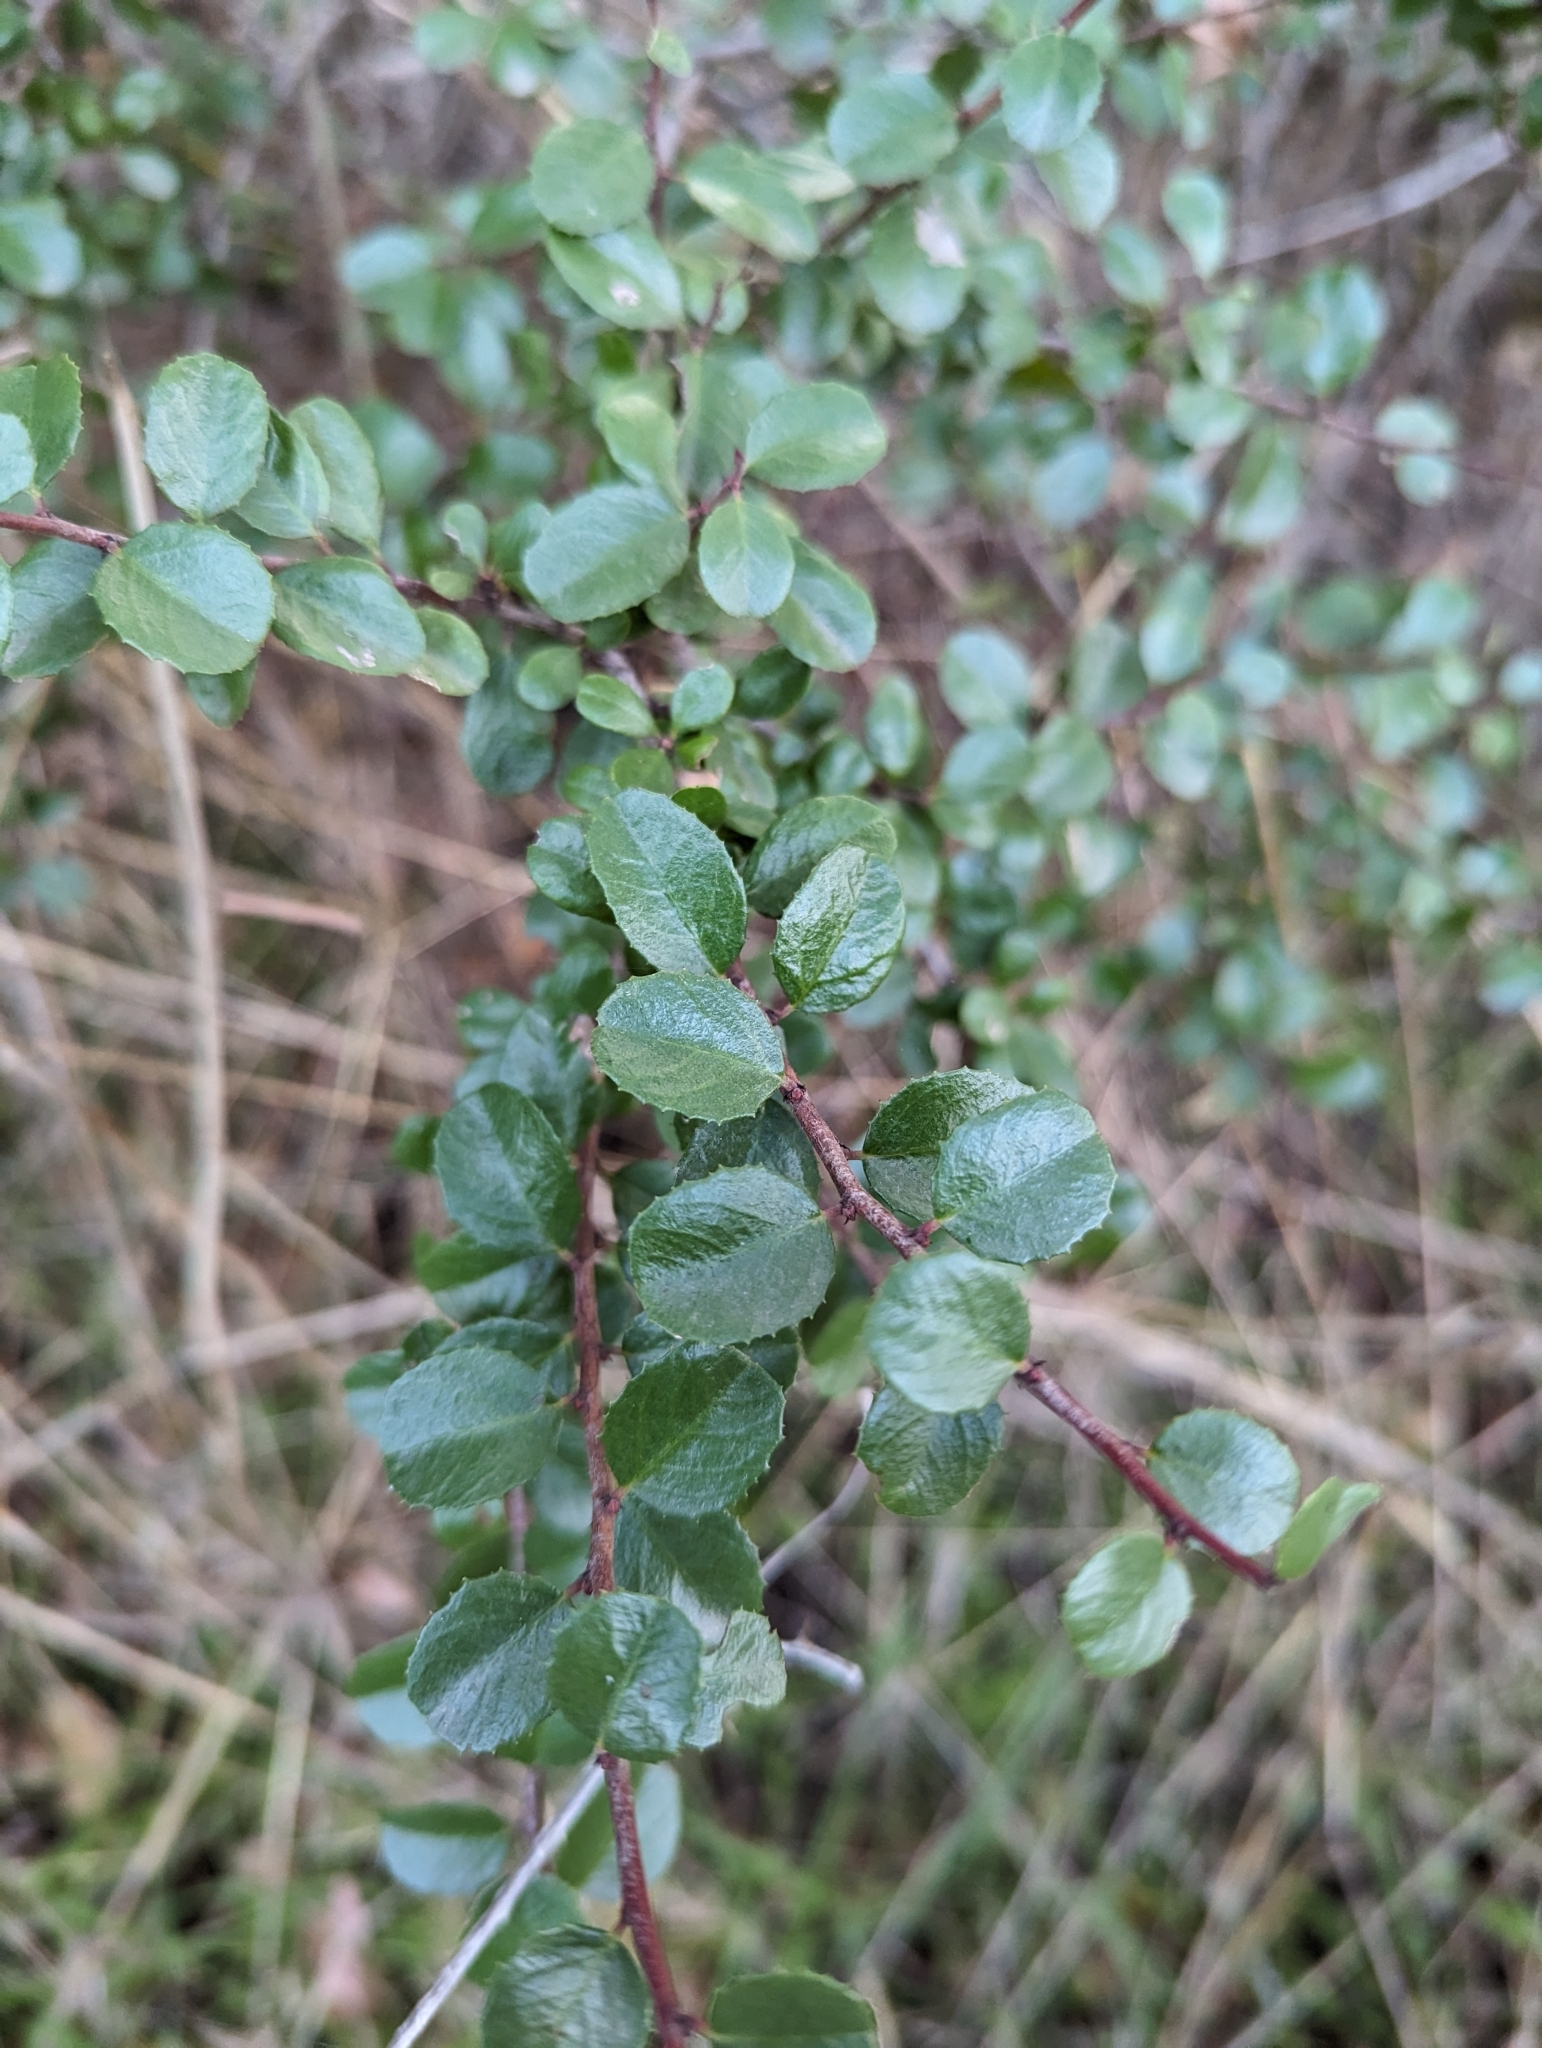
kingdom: Plantae
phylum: Tracheophyta
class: Magnoliopsida
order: Rosales
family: Rhamnaceae
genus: Endotropis
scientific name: Endotropis crocea
